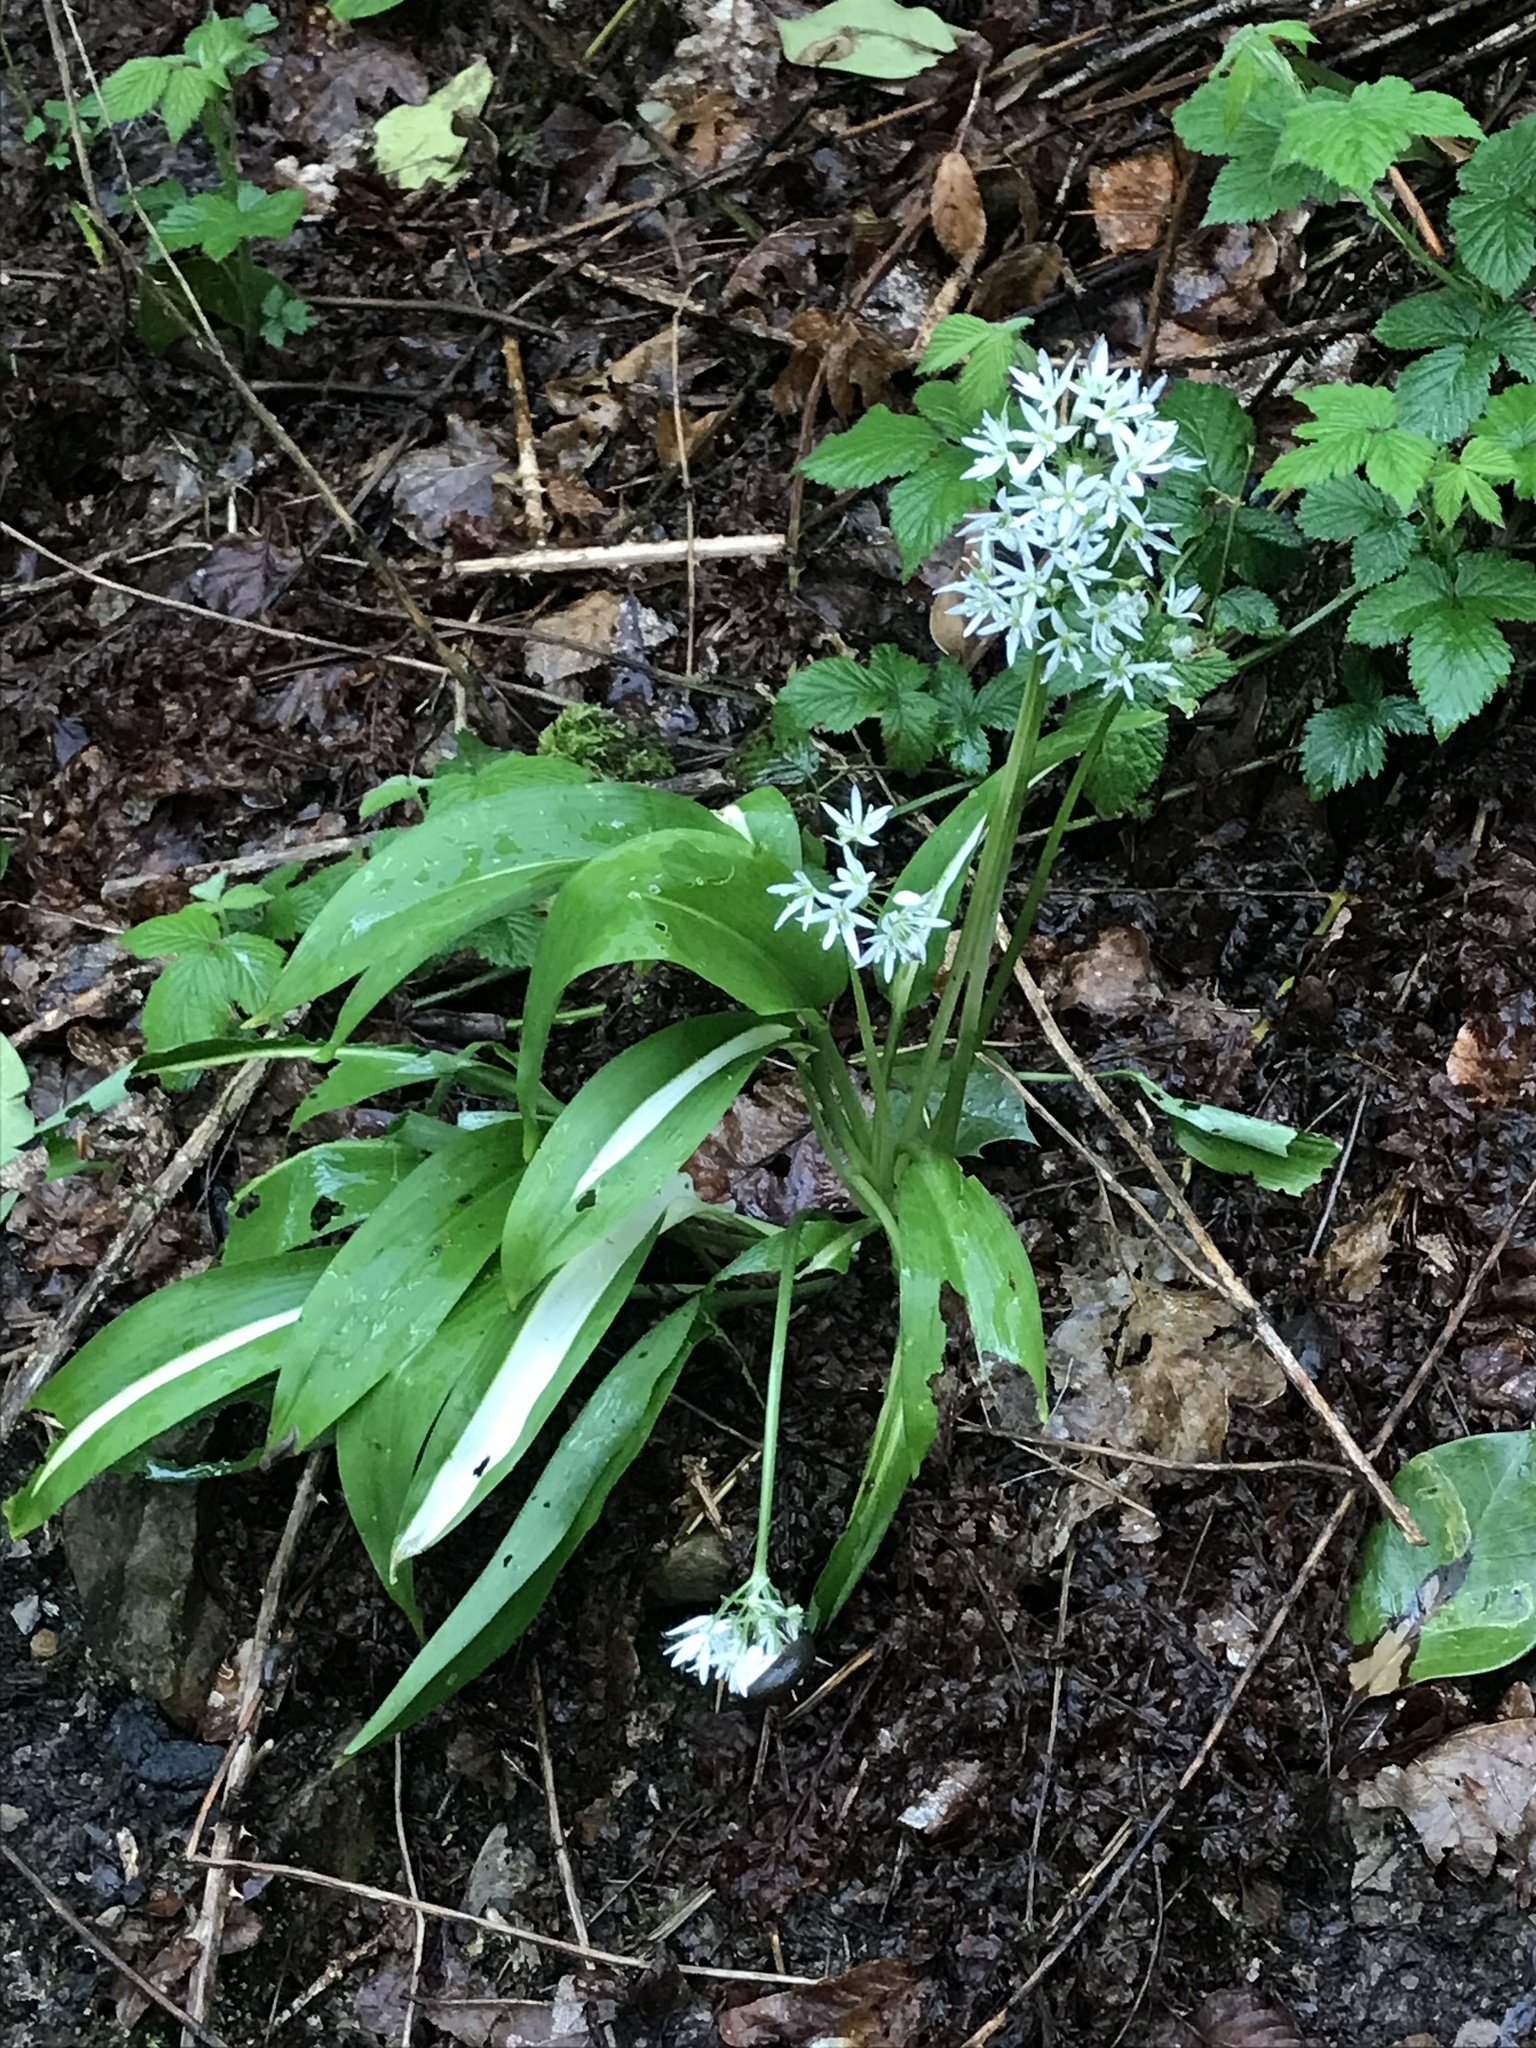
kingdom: Plantae
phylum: Tracheophyta
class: Liliopsida
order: Asparagales
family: Amaryllidaceae
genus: Allium
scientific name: Allium ursinum
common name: Ramsons
